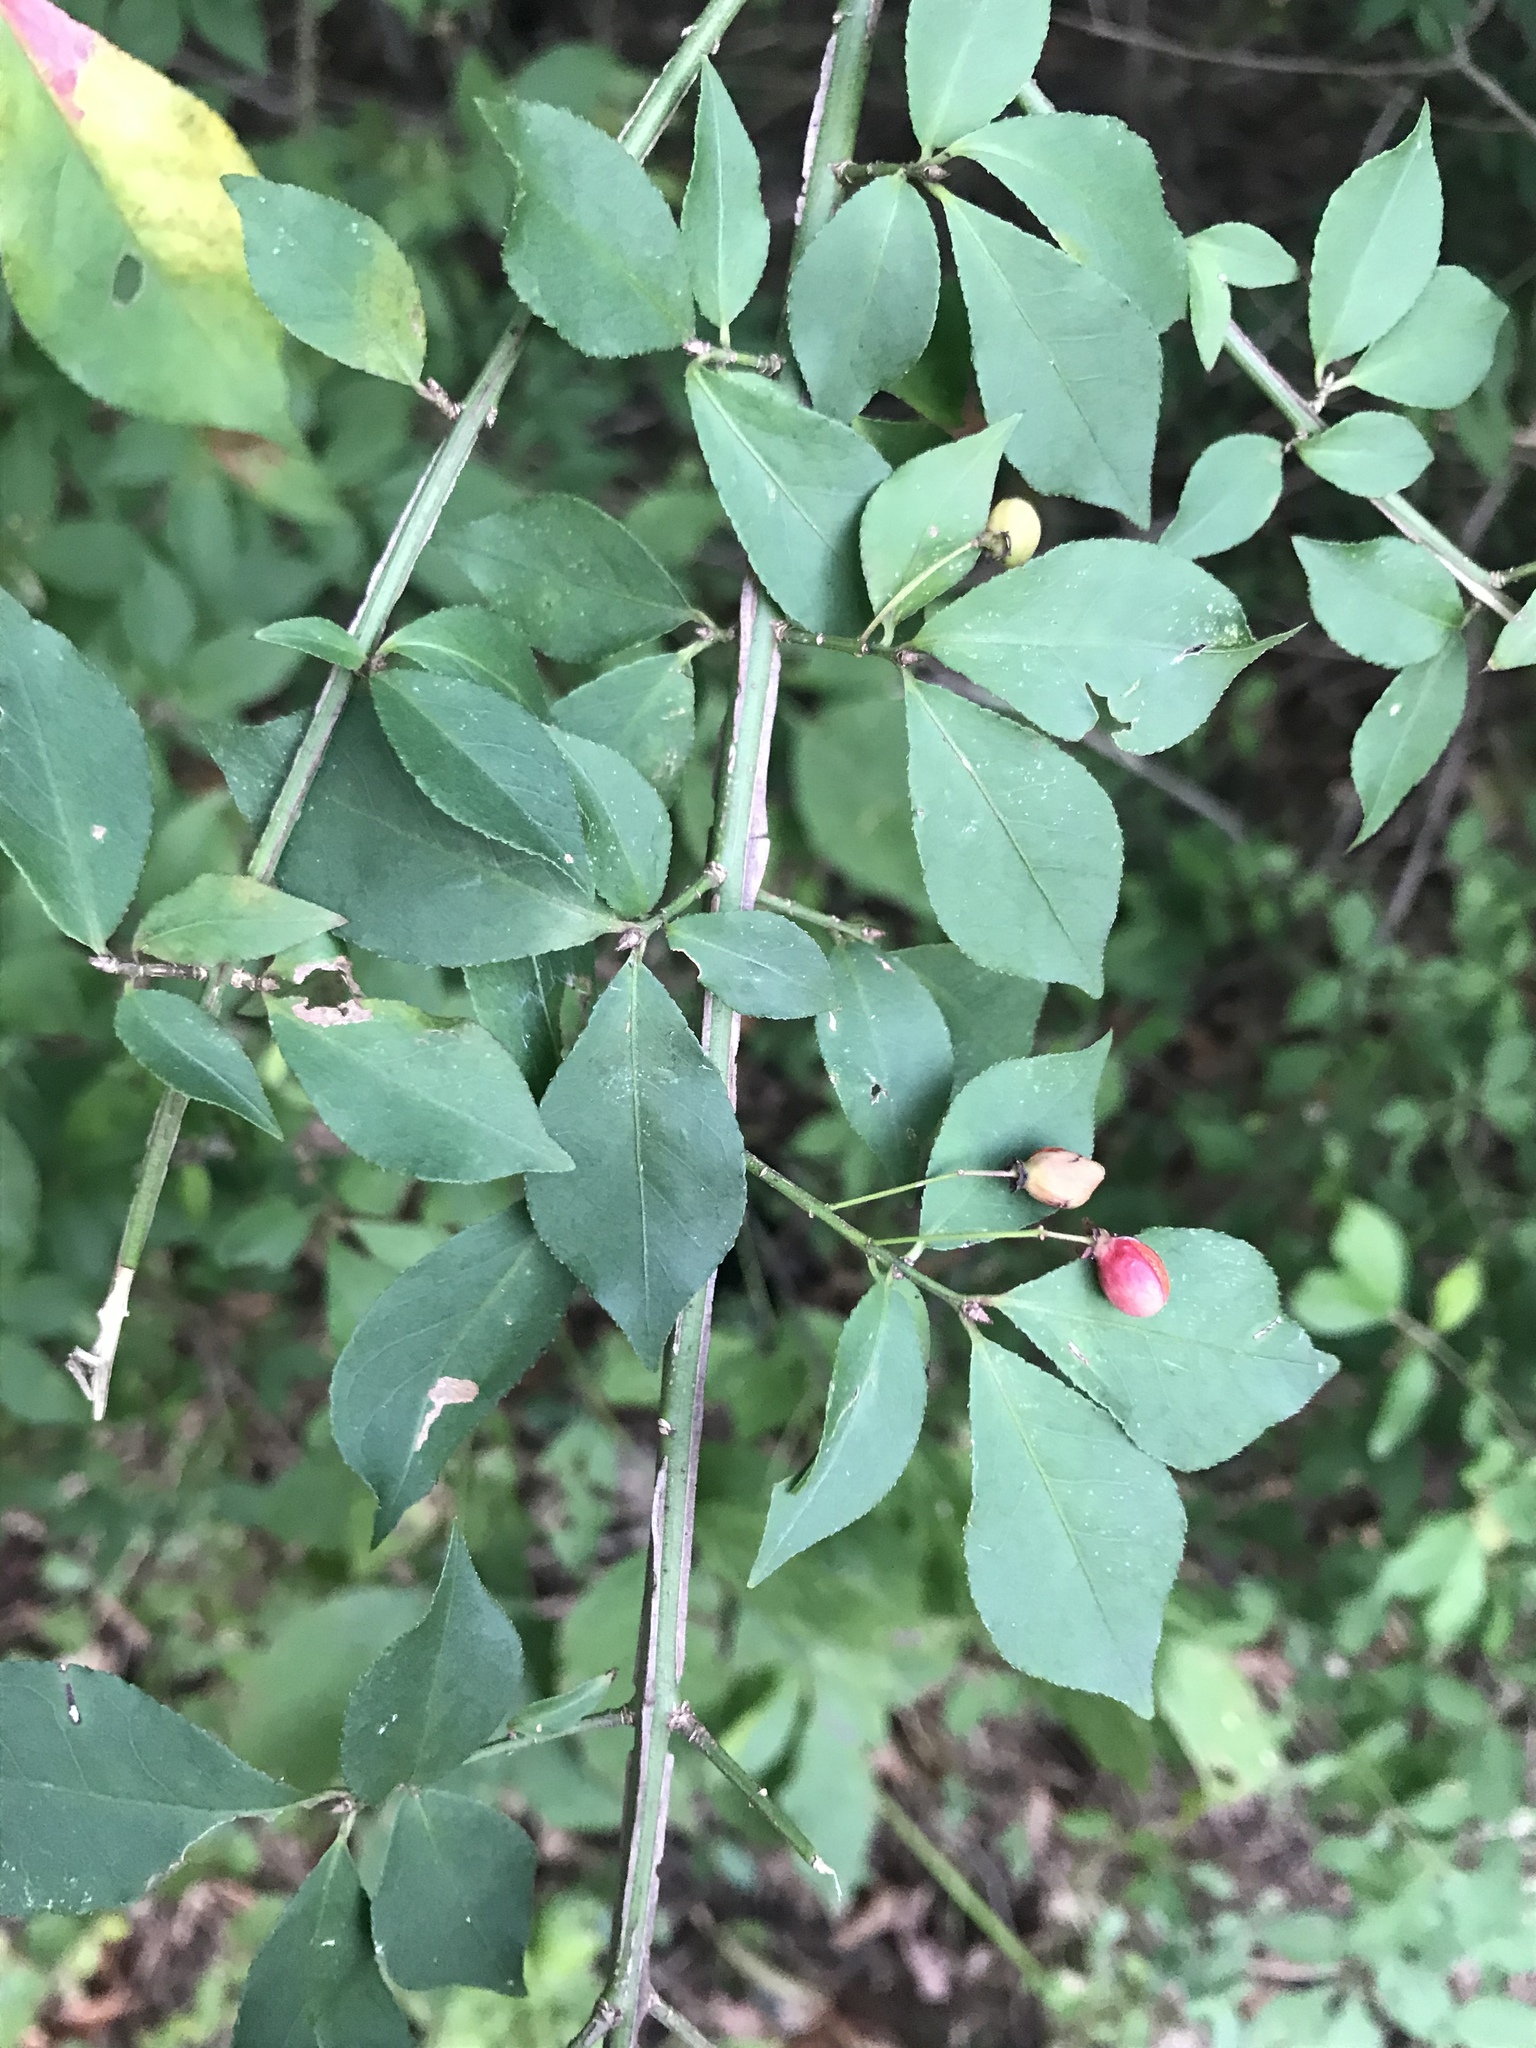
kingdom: Plantae
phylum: Tracheophyta
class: Magnoliopsida
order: Celastrales
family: Celastraceae
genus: Euonymus
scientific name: Euonymus alatus
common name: Winged euonymus
